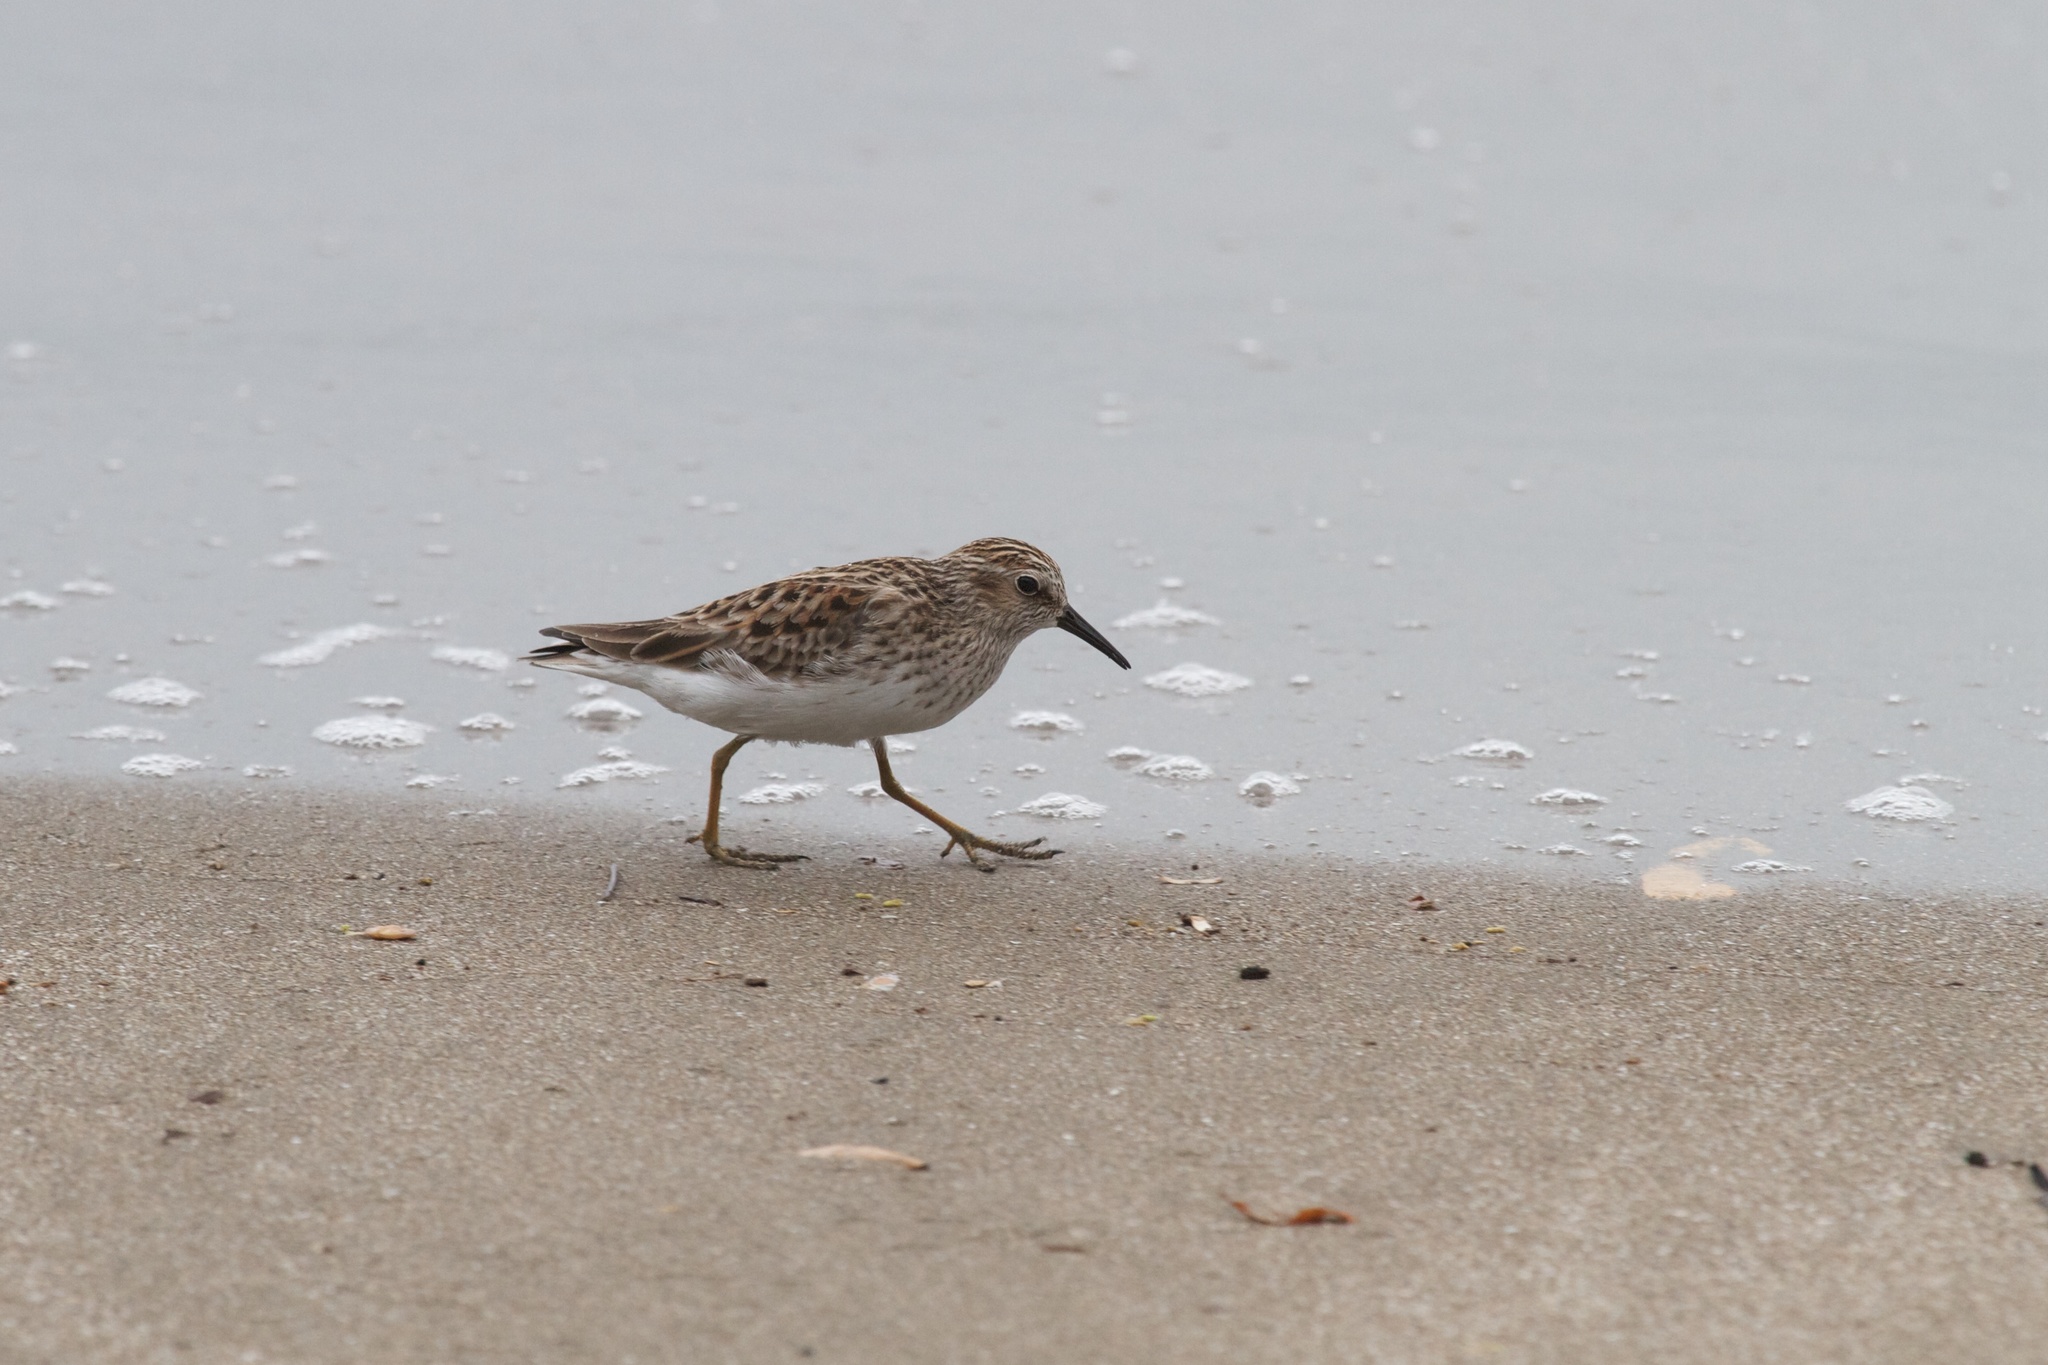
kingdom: Animalia
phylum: Chordata
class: Aves
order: Charadriiformes
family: Scolopacidae
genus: Calidris
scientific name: Calidris minutilla
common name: Least sandpiper
